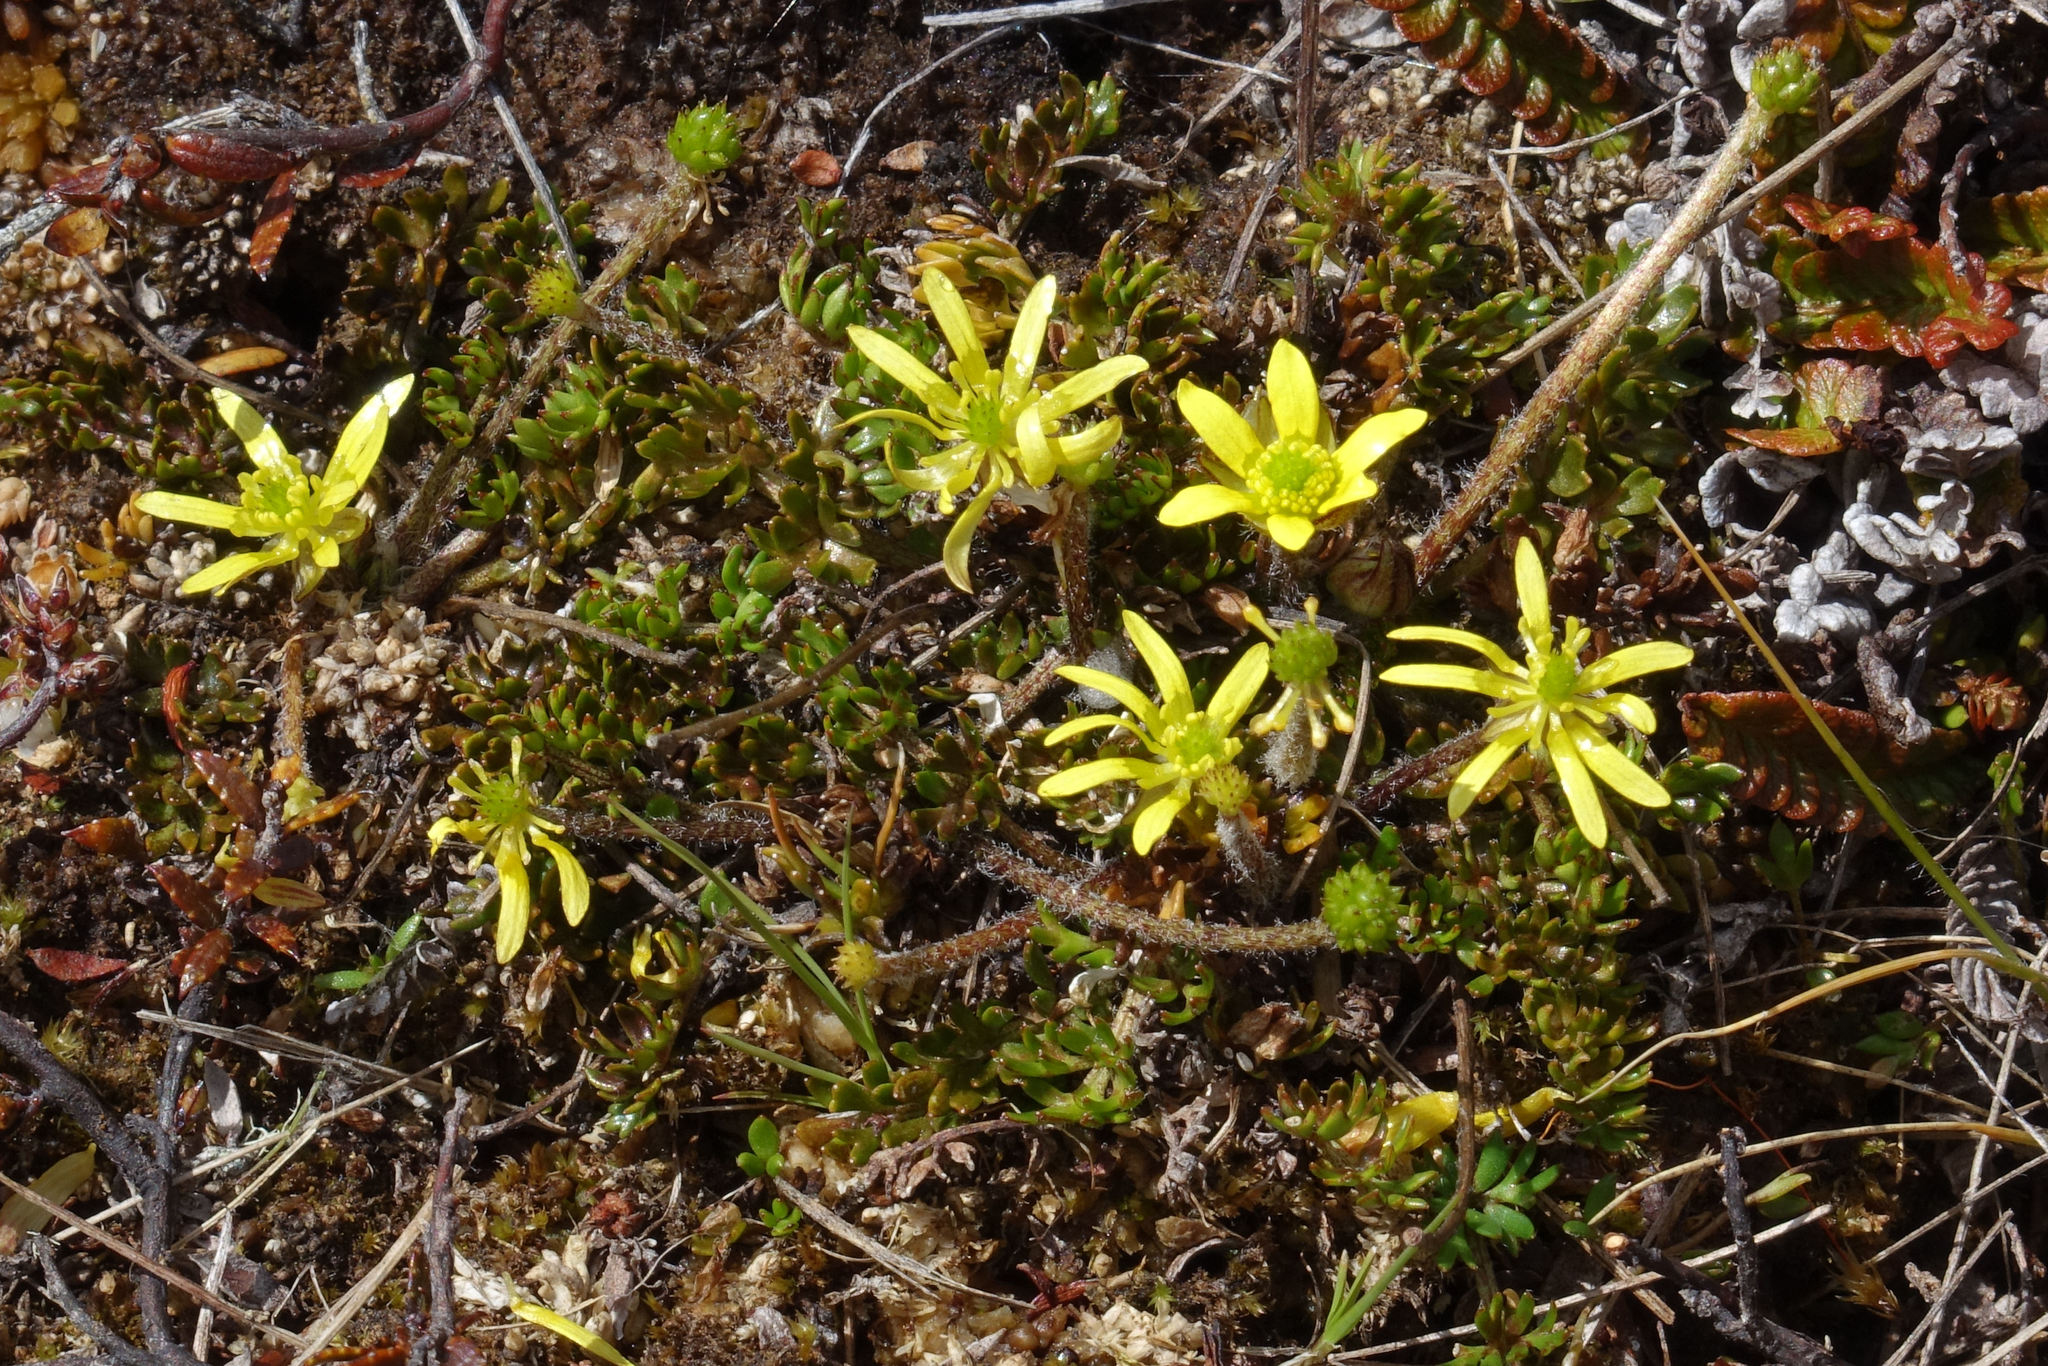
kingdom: Plantae
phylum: Tracheophyta
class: Magnoliopsida
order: Ranunculales
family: Ranunculaceae
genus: Ranunculus
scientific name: Ranunculus gracilipes
